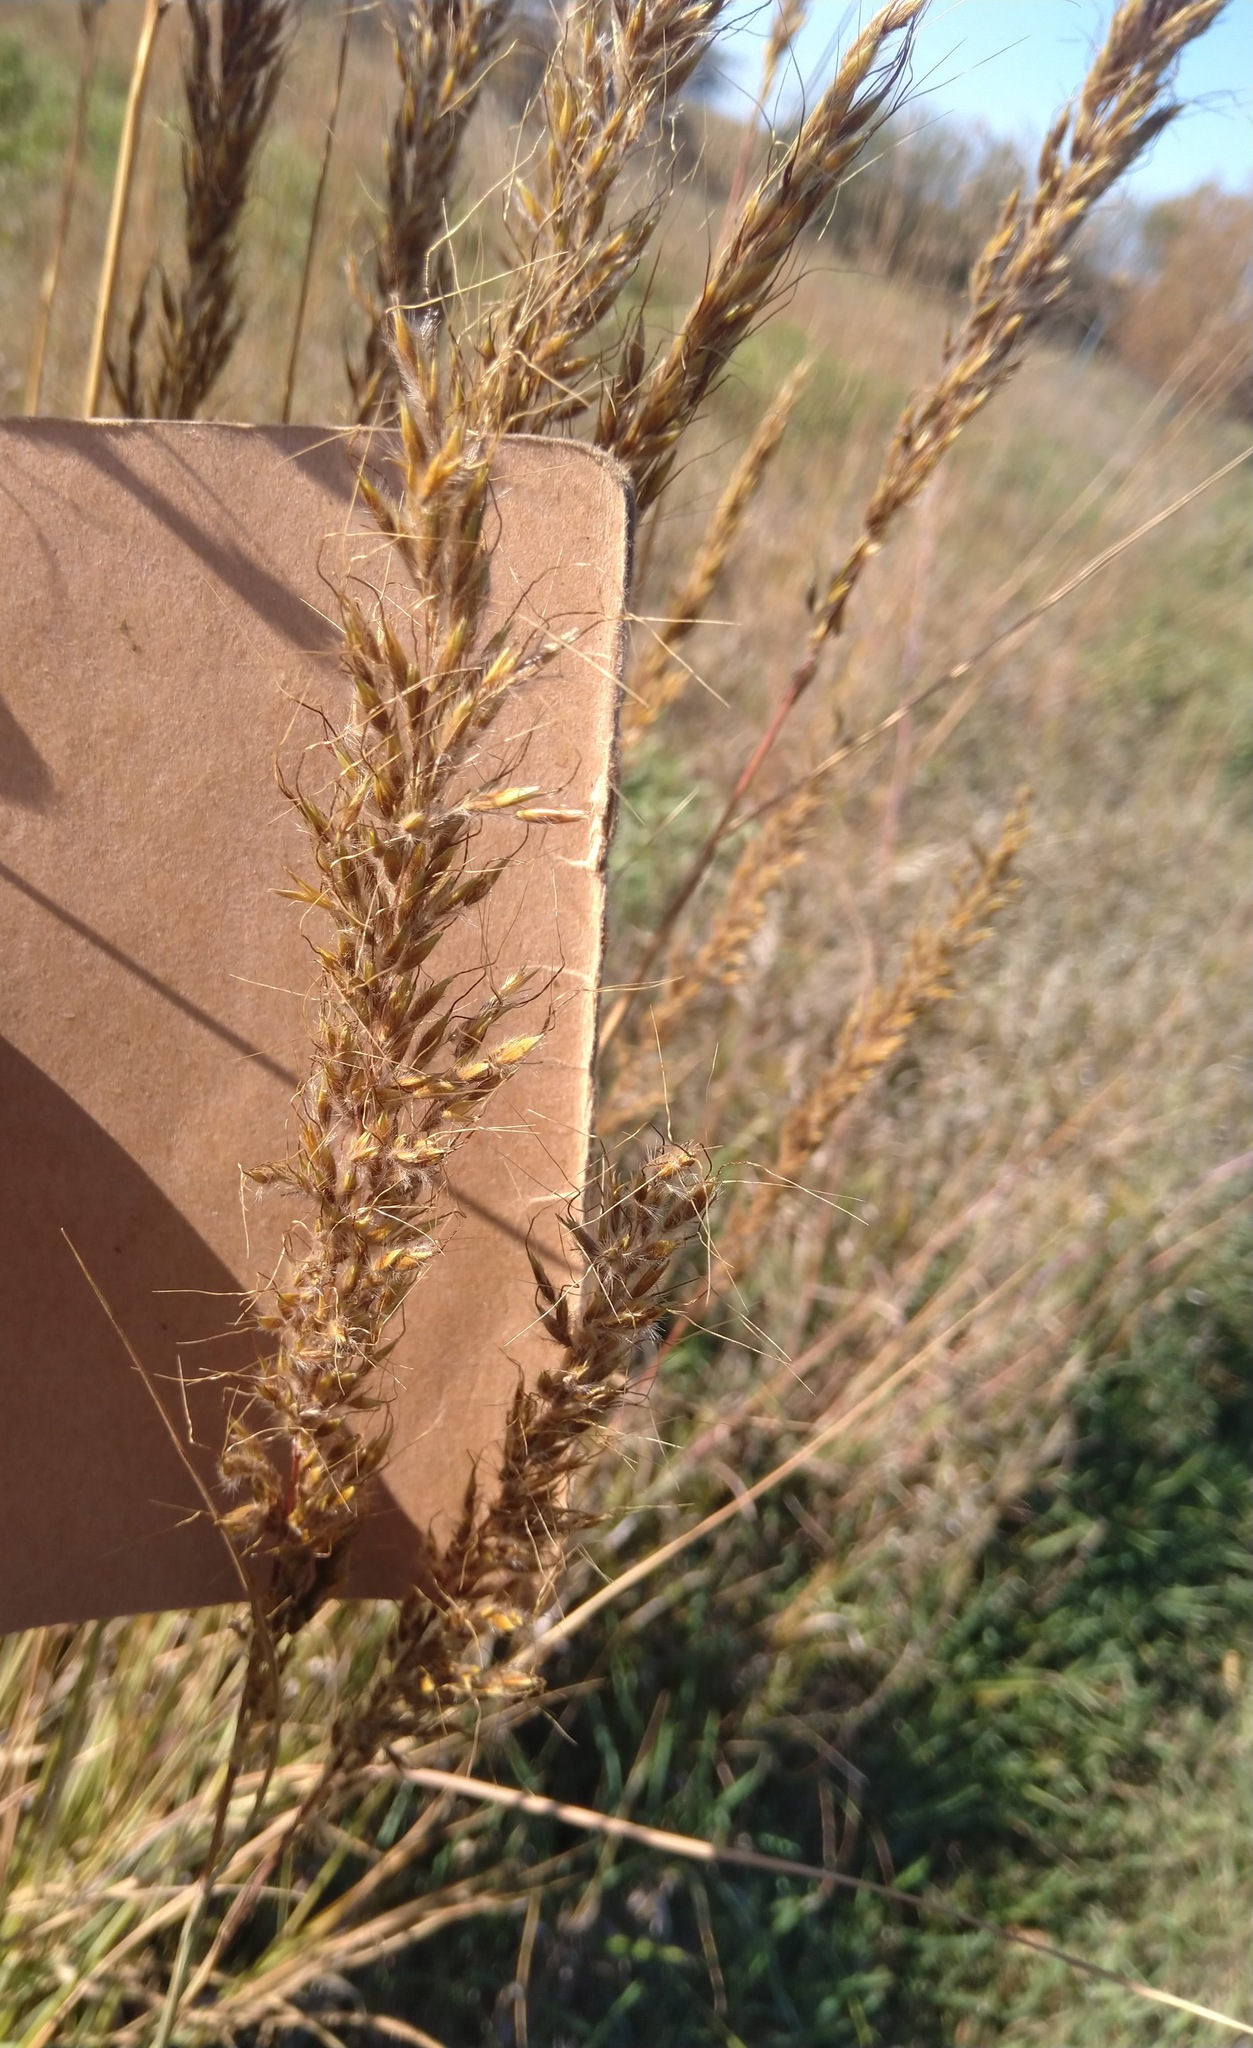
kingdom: Plantae
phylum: Tracheophyta
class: Liliopsida
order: Poales
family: Poaceae
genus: Sorghastrum
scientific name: Sorghastrum nutans
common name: Indian grass
